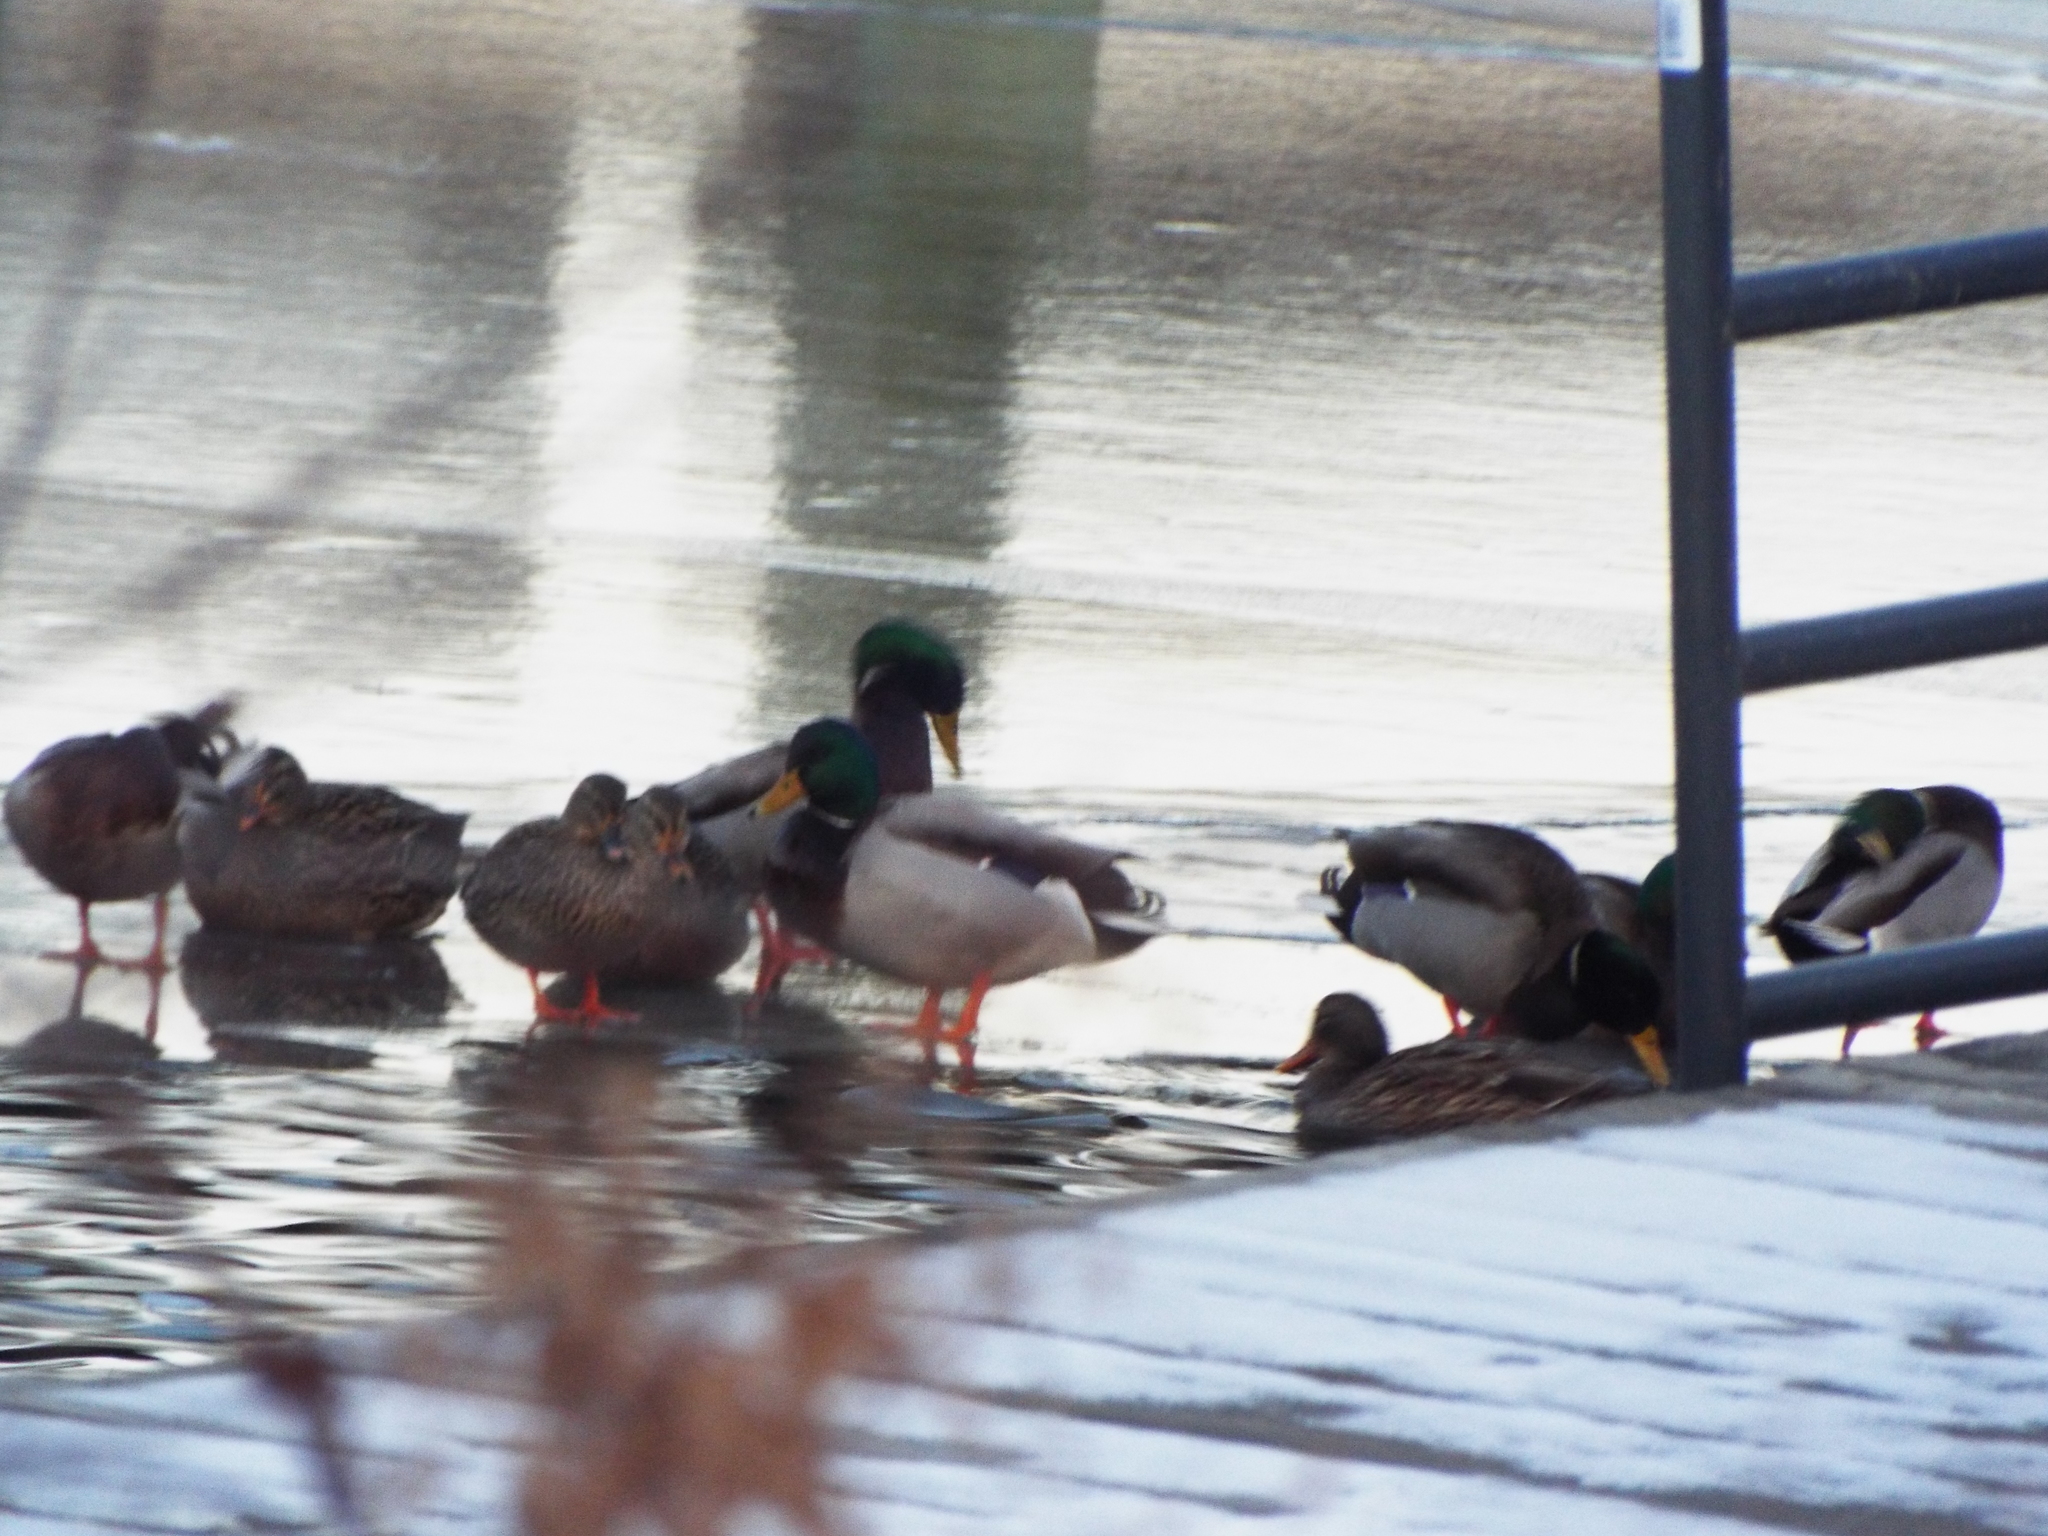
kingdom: Animalia
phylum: Chordata
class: Aves
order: Anseriformes
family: Anatidae
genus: Anas
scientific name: Anas platyrhynchos
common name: Mallard
